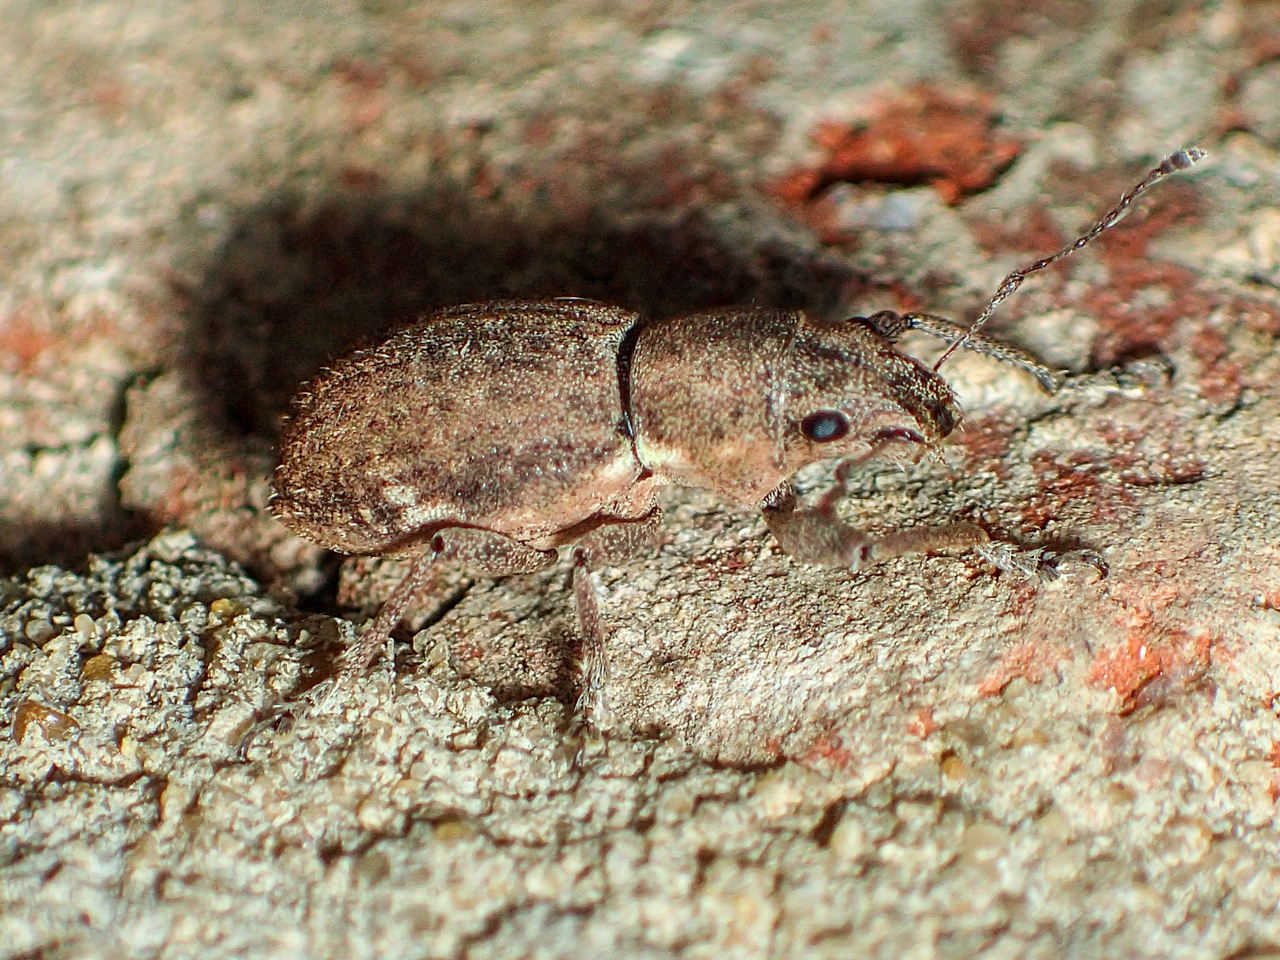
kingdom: Animalia
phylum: Arthropoda
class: Insecta
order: Coleoptera
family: Curculionidae
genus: Naupactus
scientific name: Naupactus cervinus
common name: Fuller rose beetle
